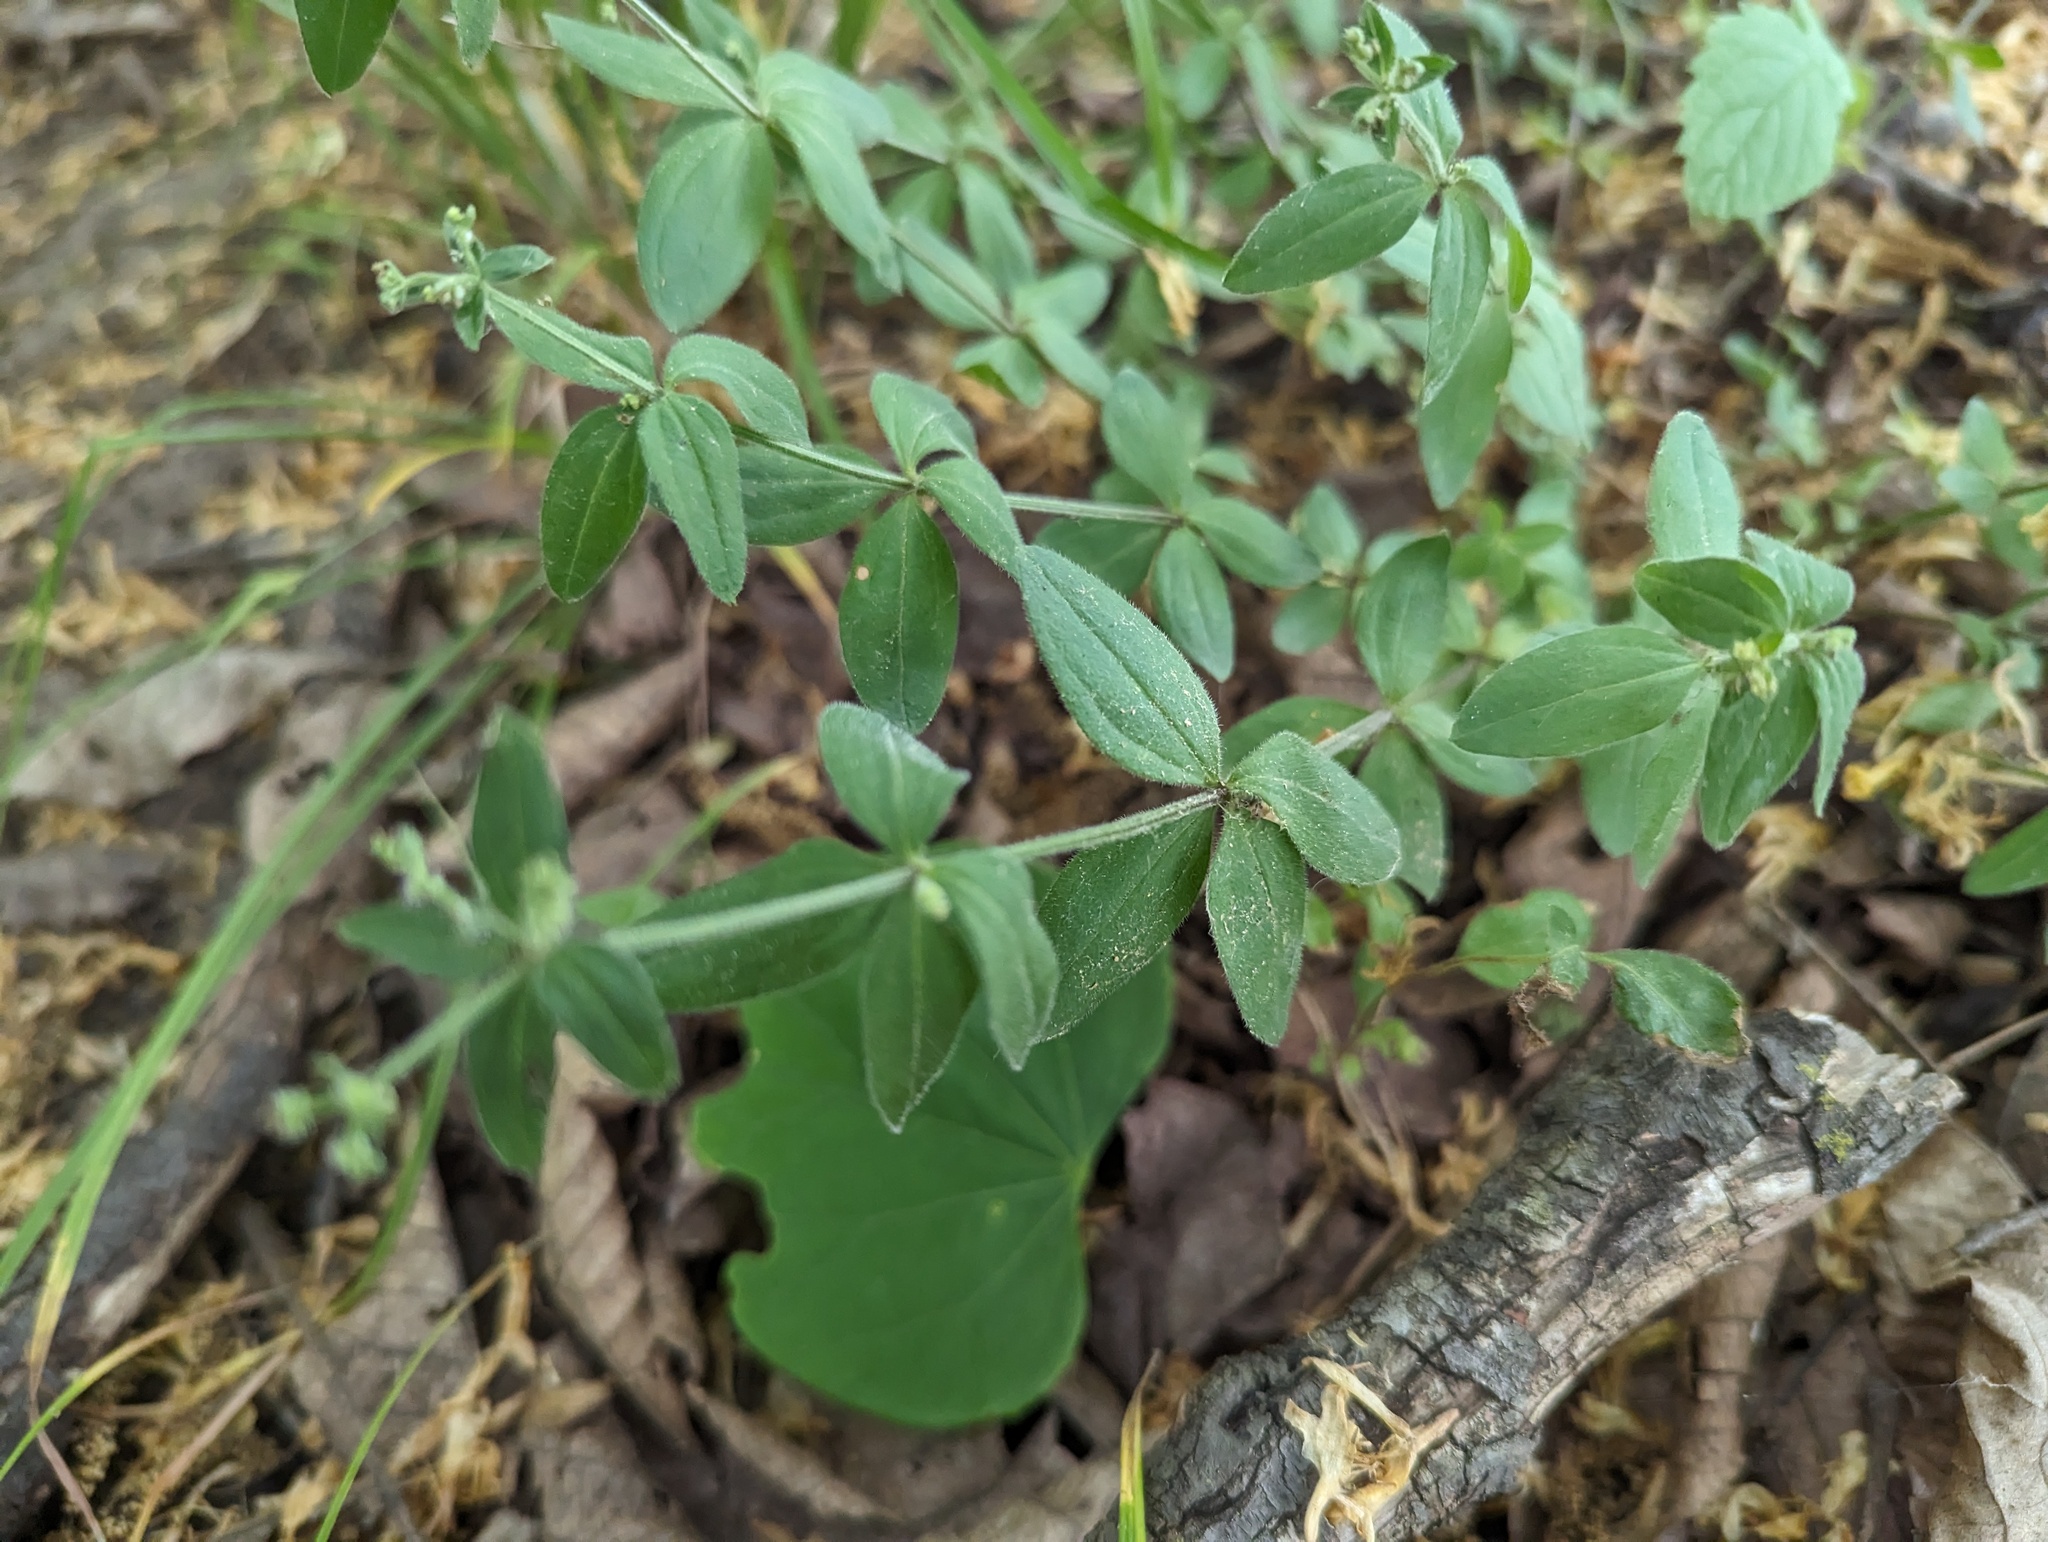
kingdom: Plantae
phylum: Tracheophyta
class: Magnoliopsida
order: Gentianales
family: Rubiaceae
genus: Galium
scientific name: Galium circaezans
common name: Forest bedstraw
